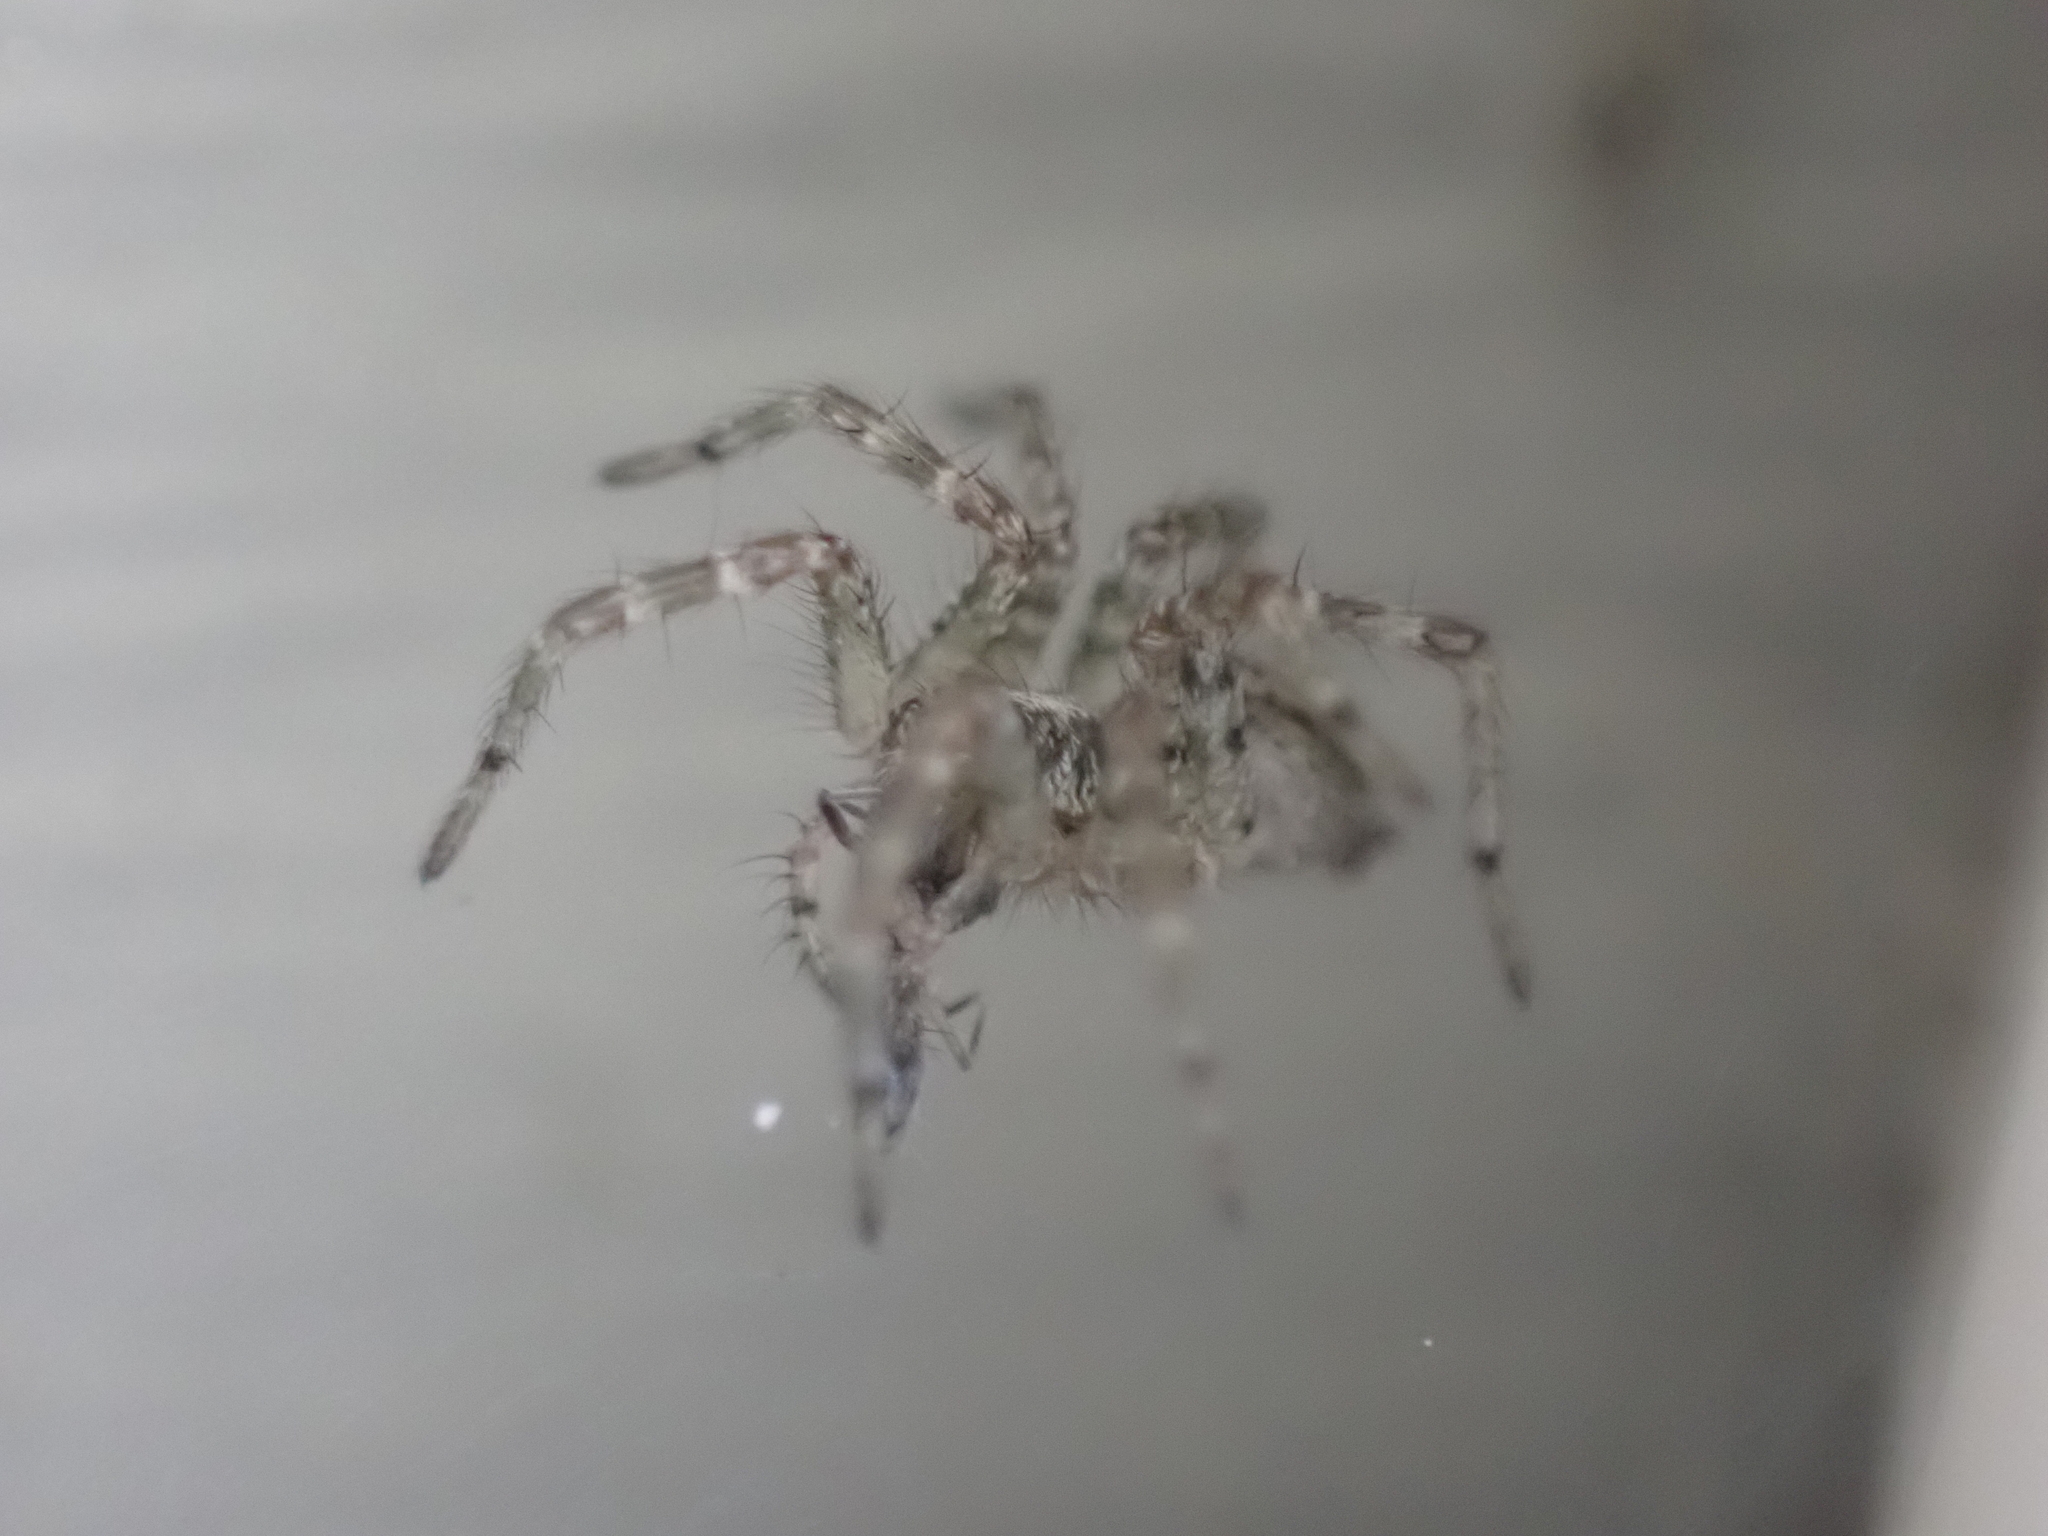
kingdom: Animalia
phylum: Arthropoda
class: Arachnida
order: Araneae
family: Agelenidae
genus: Barronopsis
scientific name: Barronopsis texana
